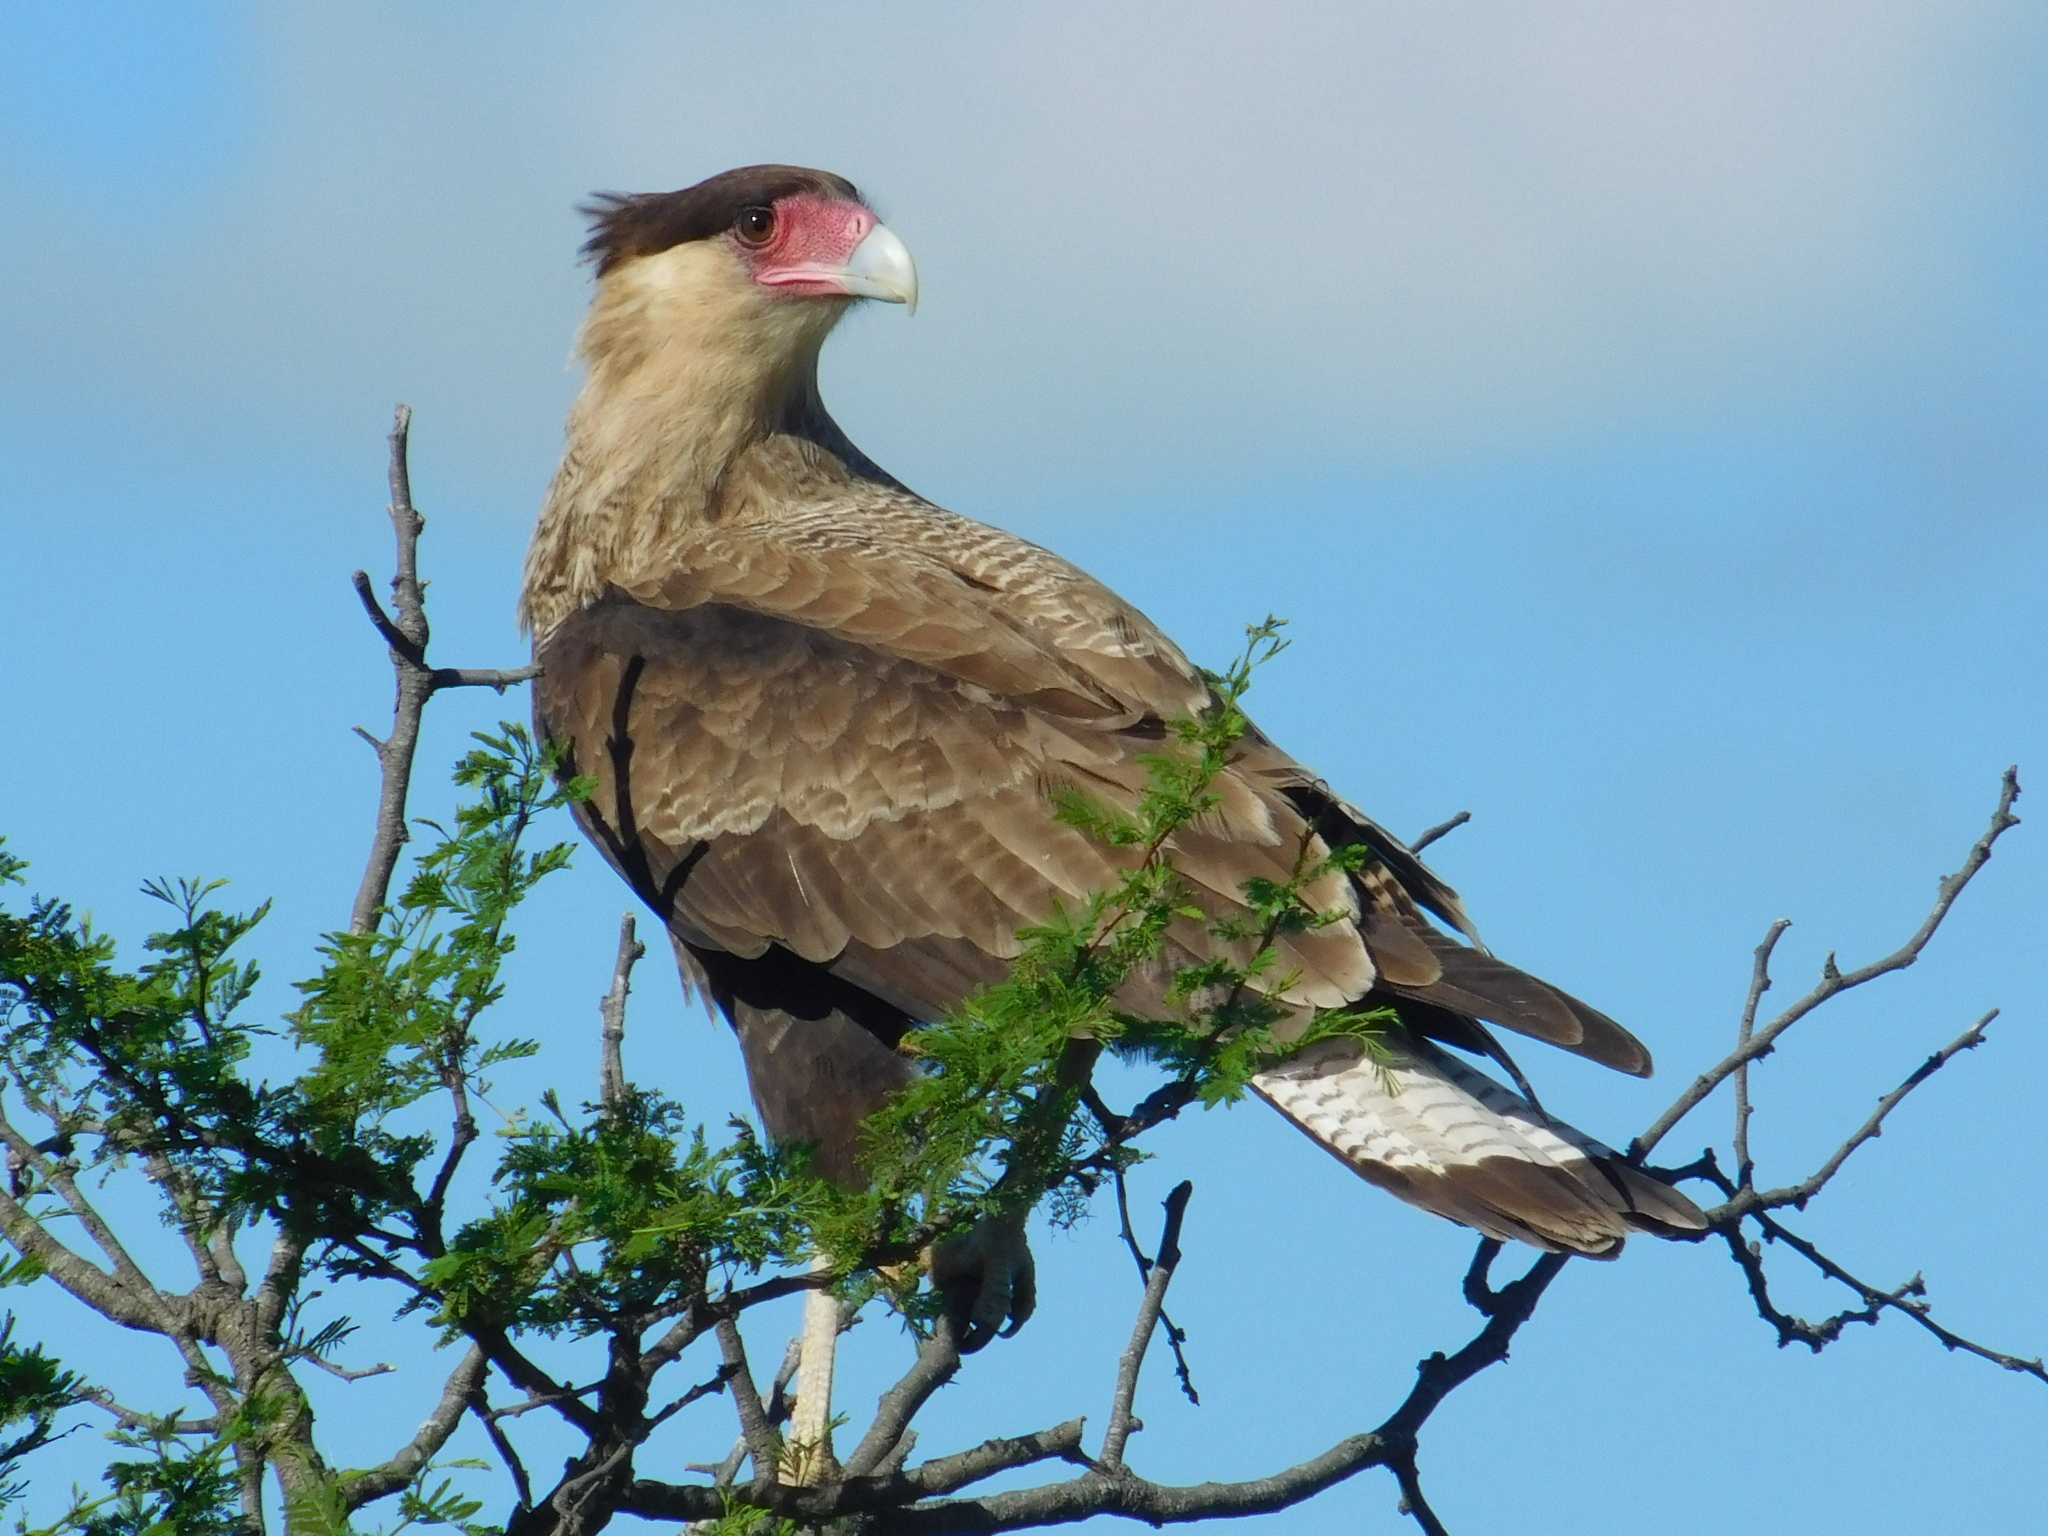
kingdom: Animalia
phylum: Chordata
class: Aves
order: Falconiformes
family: Falconidae
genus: Caracara
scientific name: Caracara plancus
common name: Southern caracara
